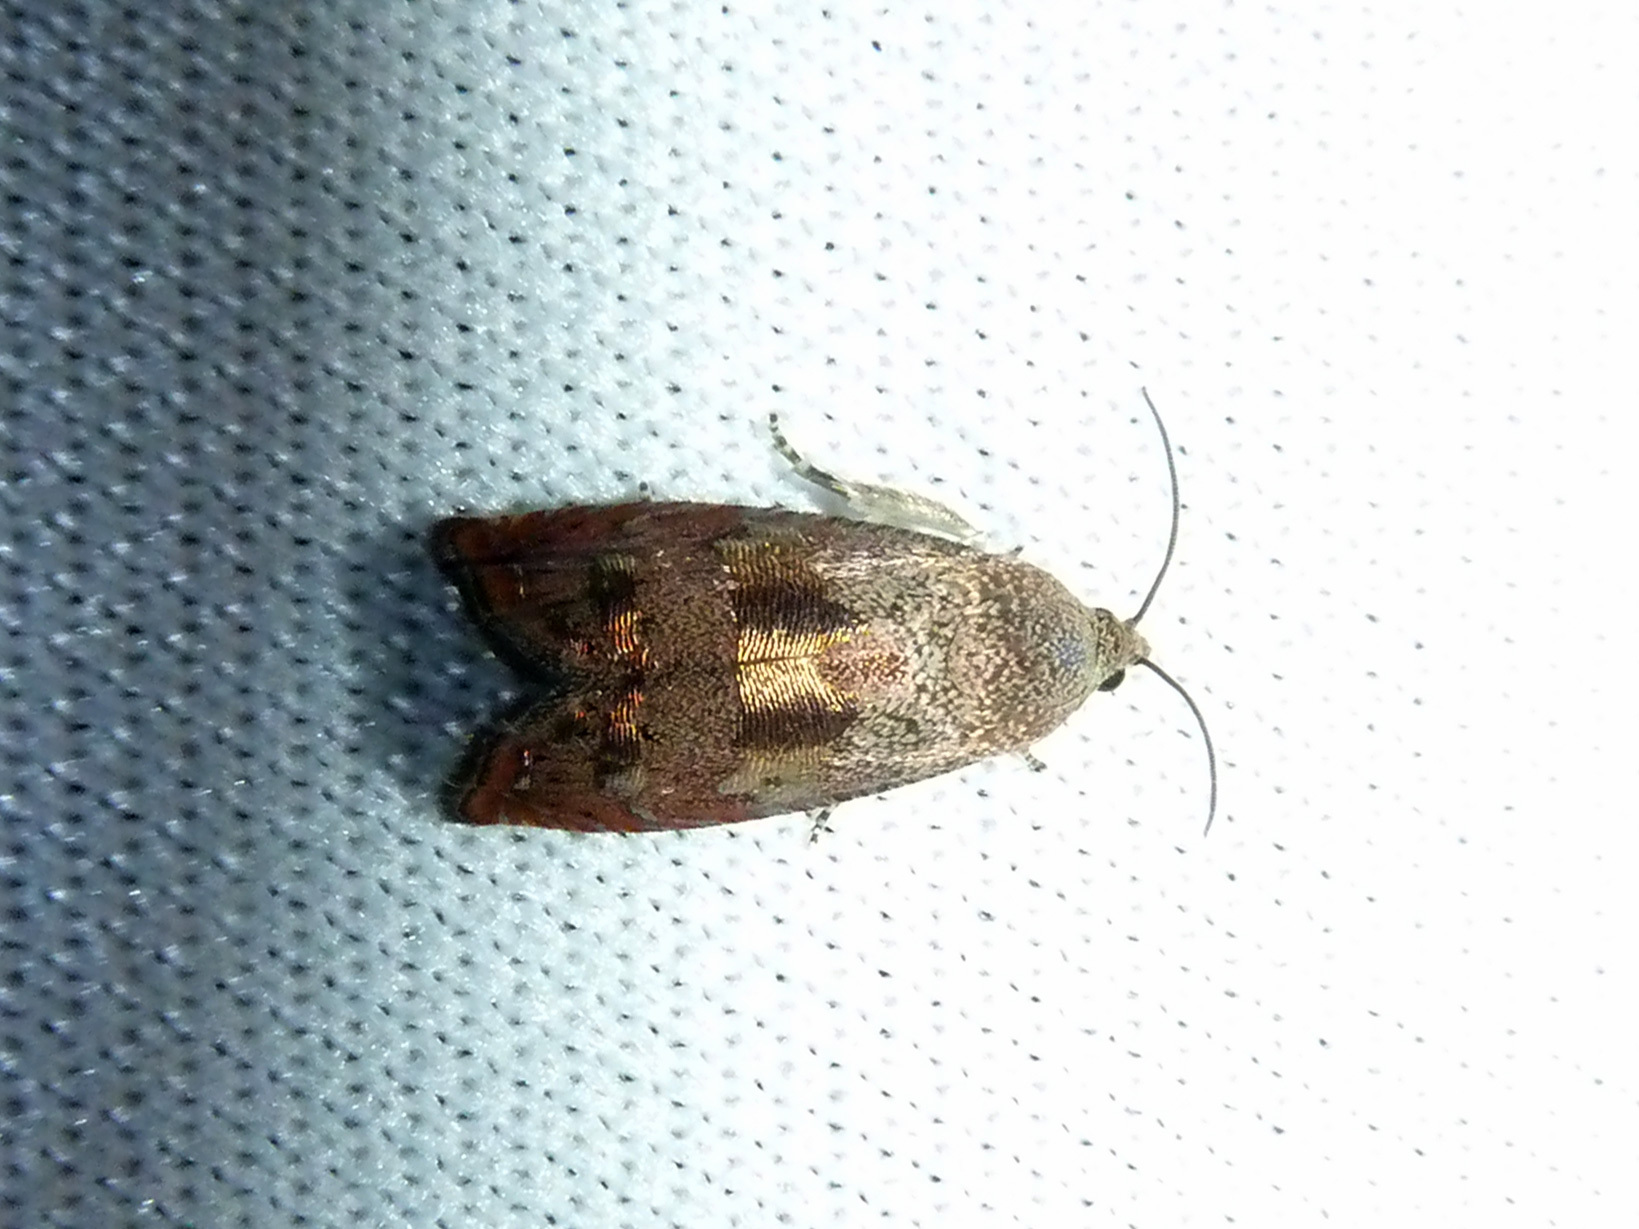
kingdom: Animalia
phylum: Arthropoda
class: Insecta
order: Lepidoptera
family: Tortricidae
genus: Cydia
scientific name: Cydia latiferreana
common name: Filbertworm moth
